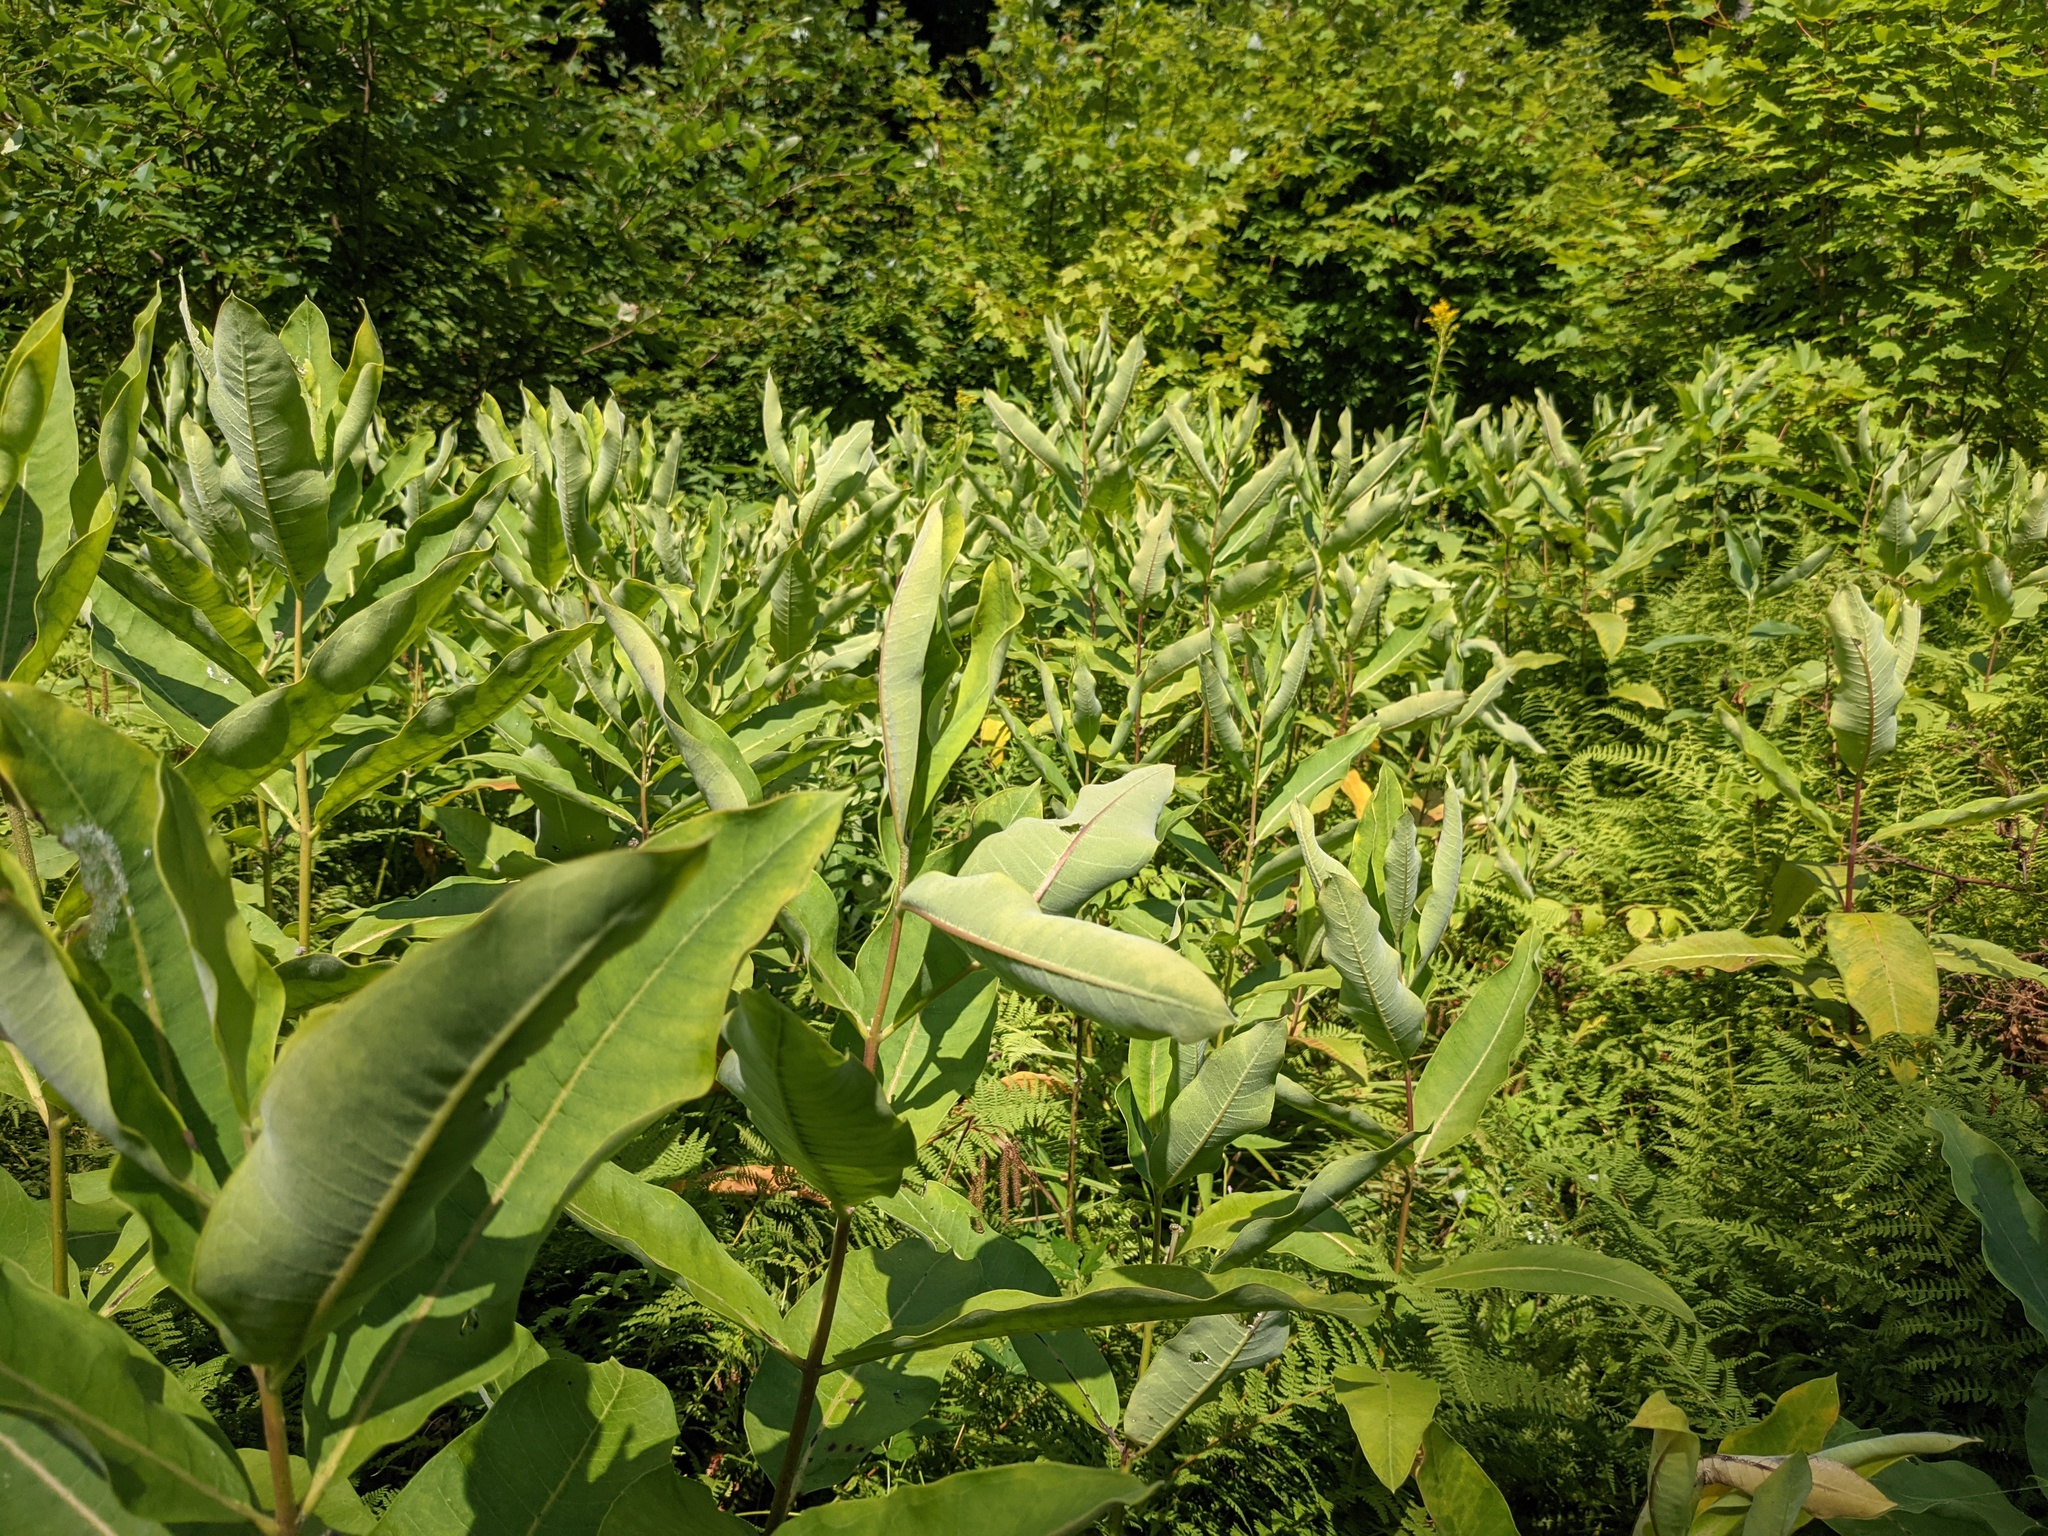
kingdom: Plantae
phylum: Tracheophyta
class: Magnoliopsida
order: Gentianales
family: Apocynaceae
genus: Asclepias
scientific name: Asclepias syriaca
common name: Common milkweed
